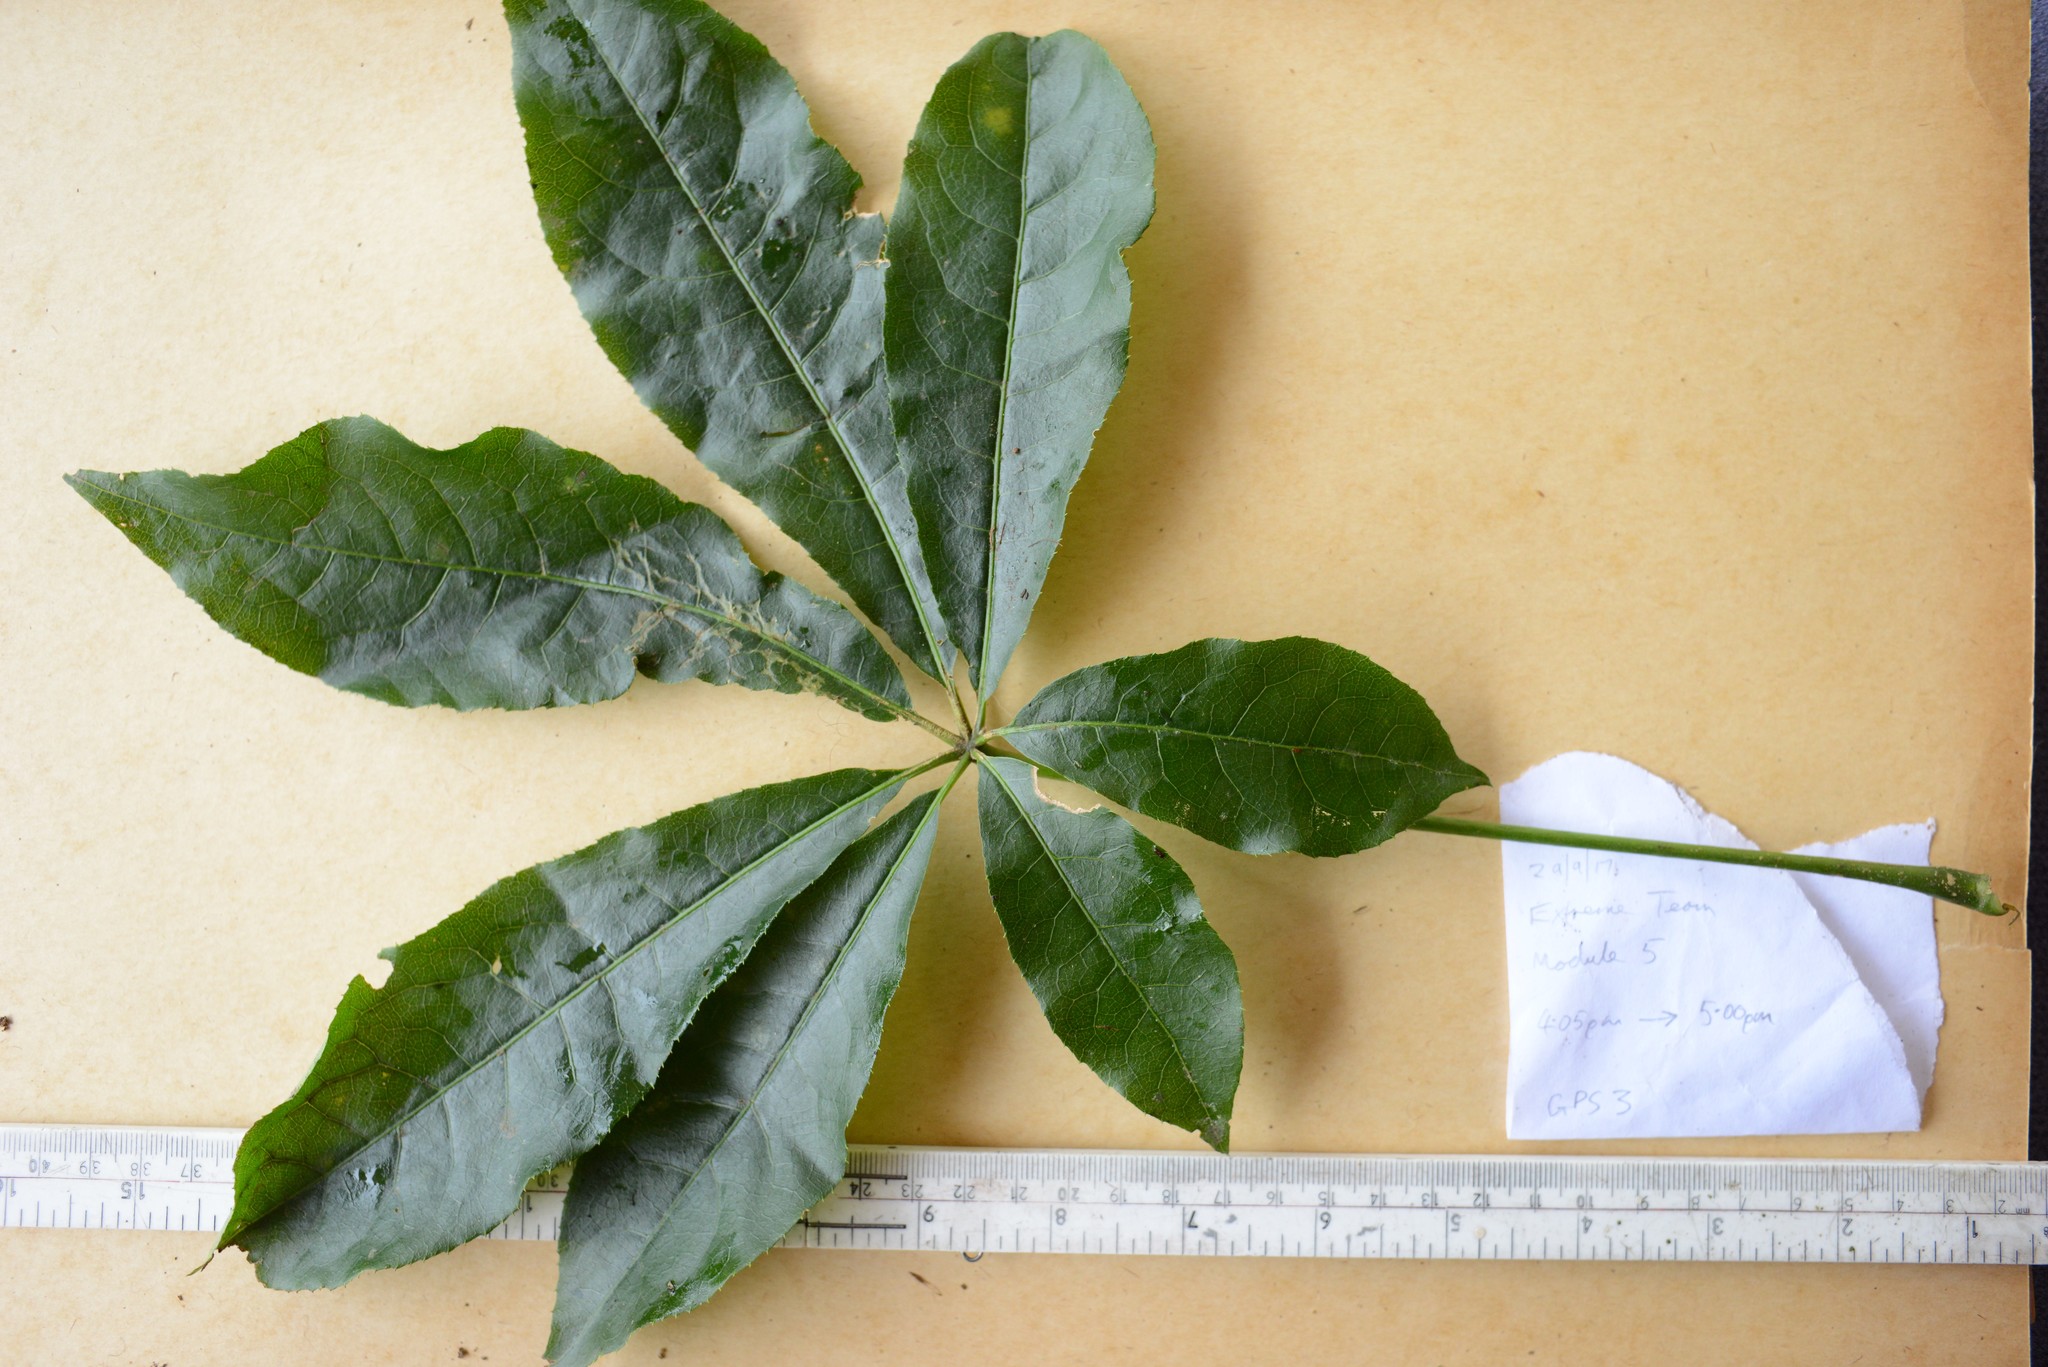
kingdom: Plantae
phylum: Tracheophyta
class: Magnoliopsida
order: Apiales
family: Araliaceae
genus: Schefflera
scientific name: Schefflera digitata
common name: Pate
